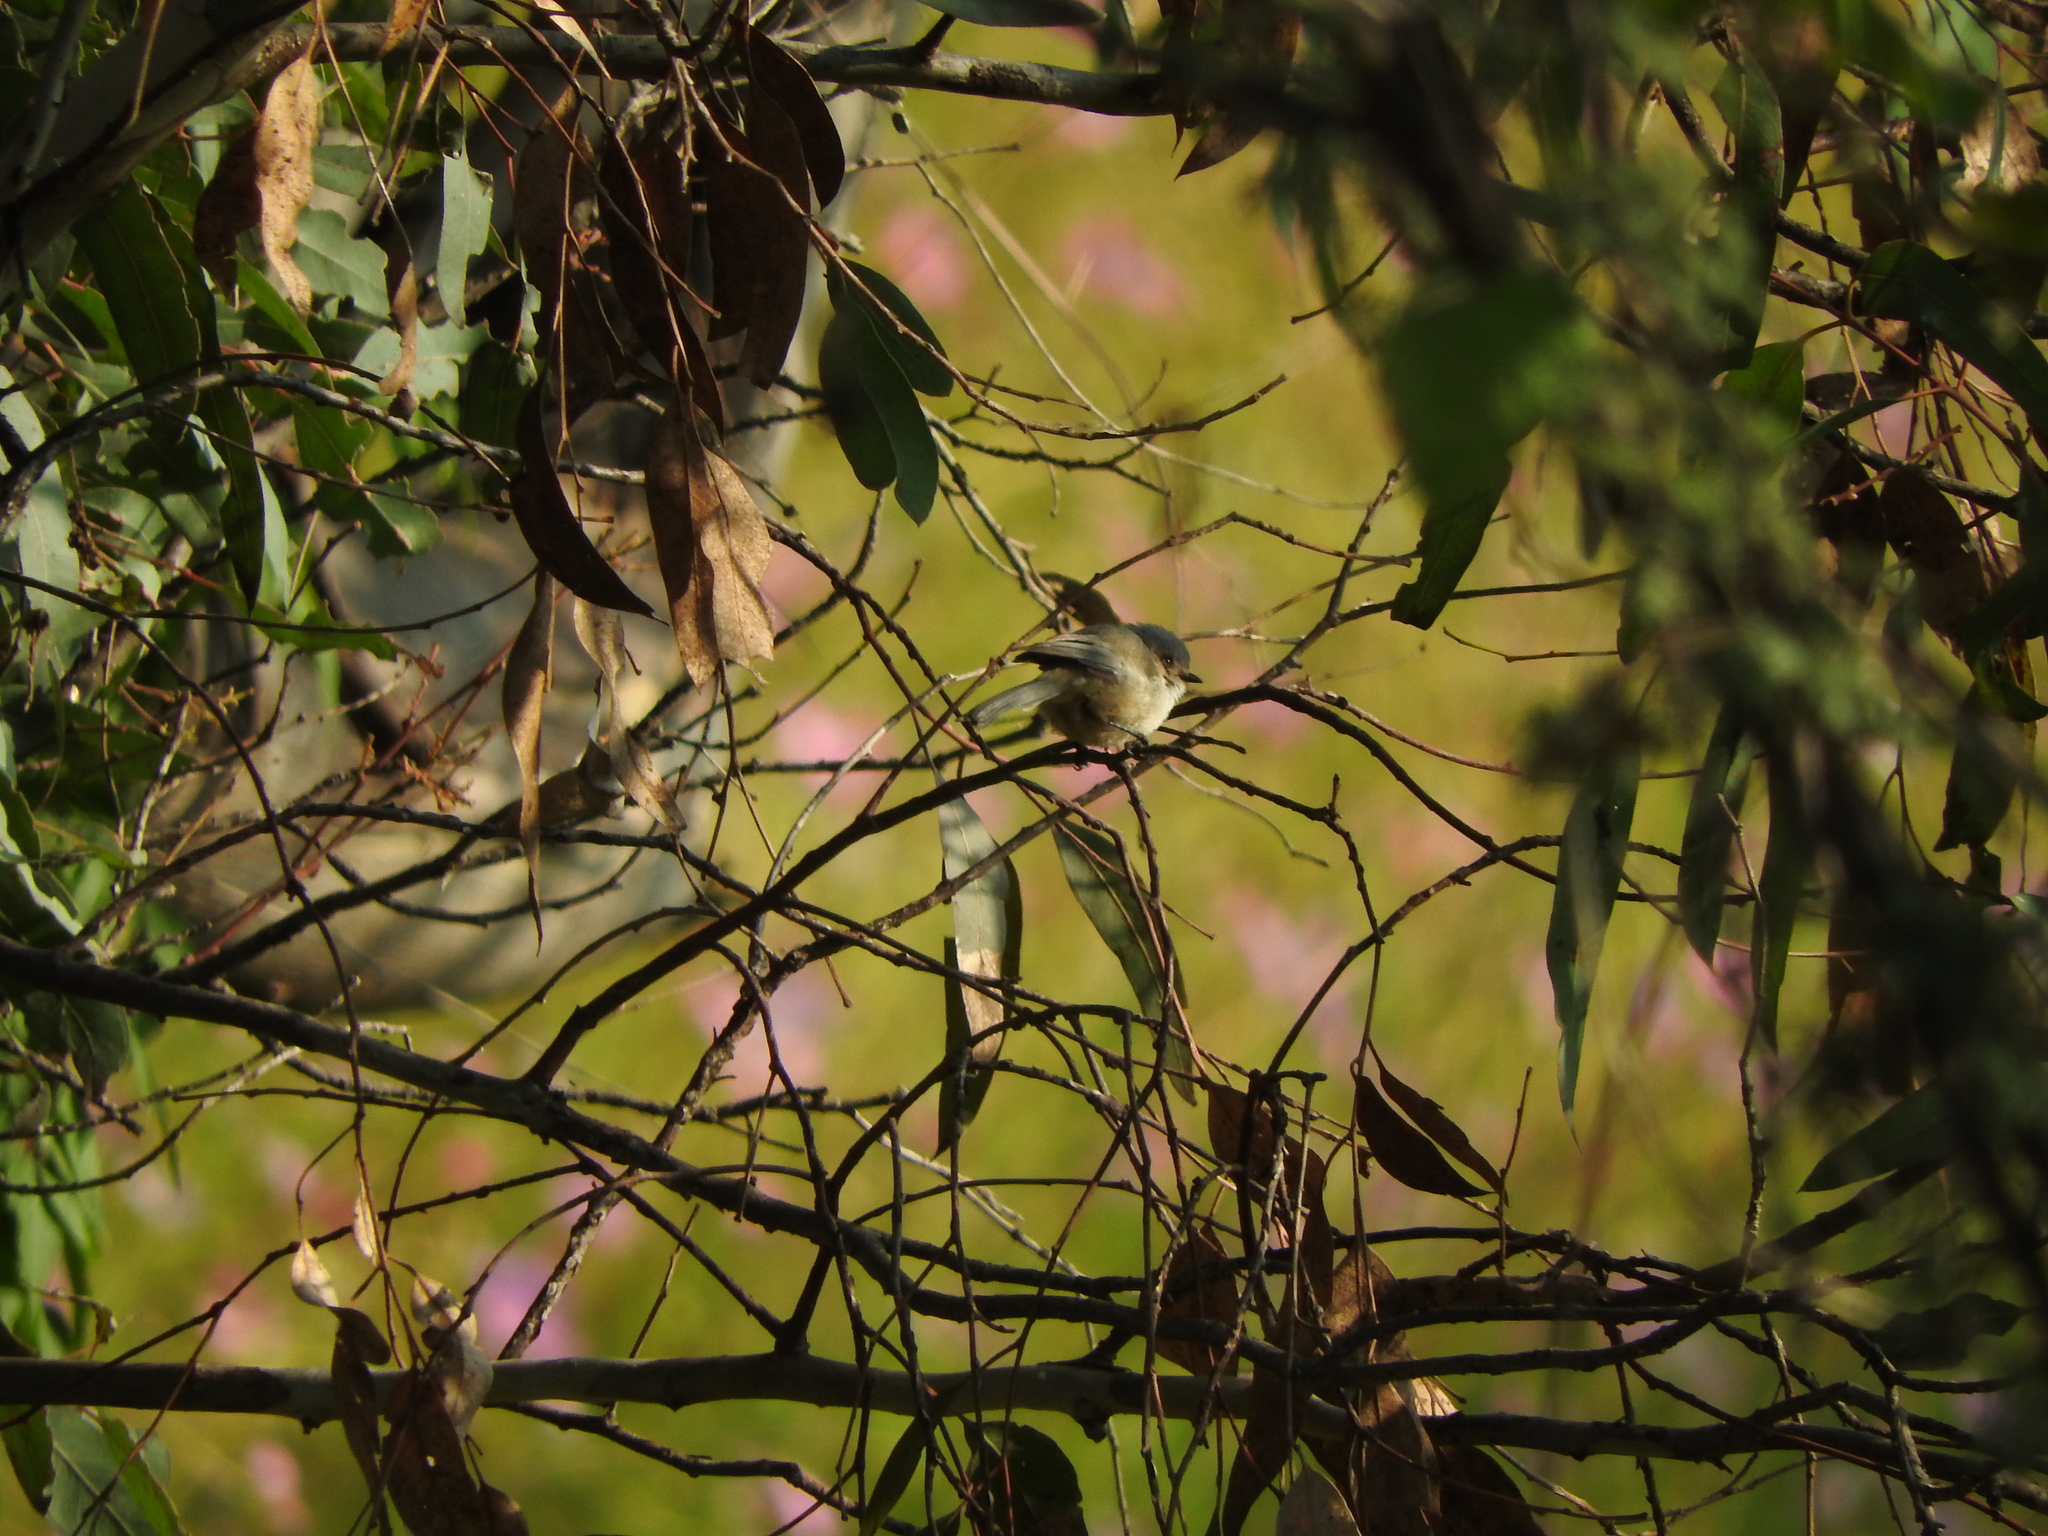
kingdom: Animalia
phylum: Chordata
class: Aves
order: Passeriformes
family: Aegithalidae
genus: Psaltriparus
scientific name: Psaltriparus minimus
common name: American bushtit
